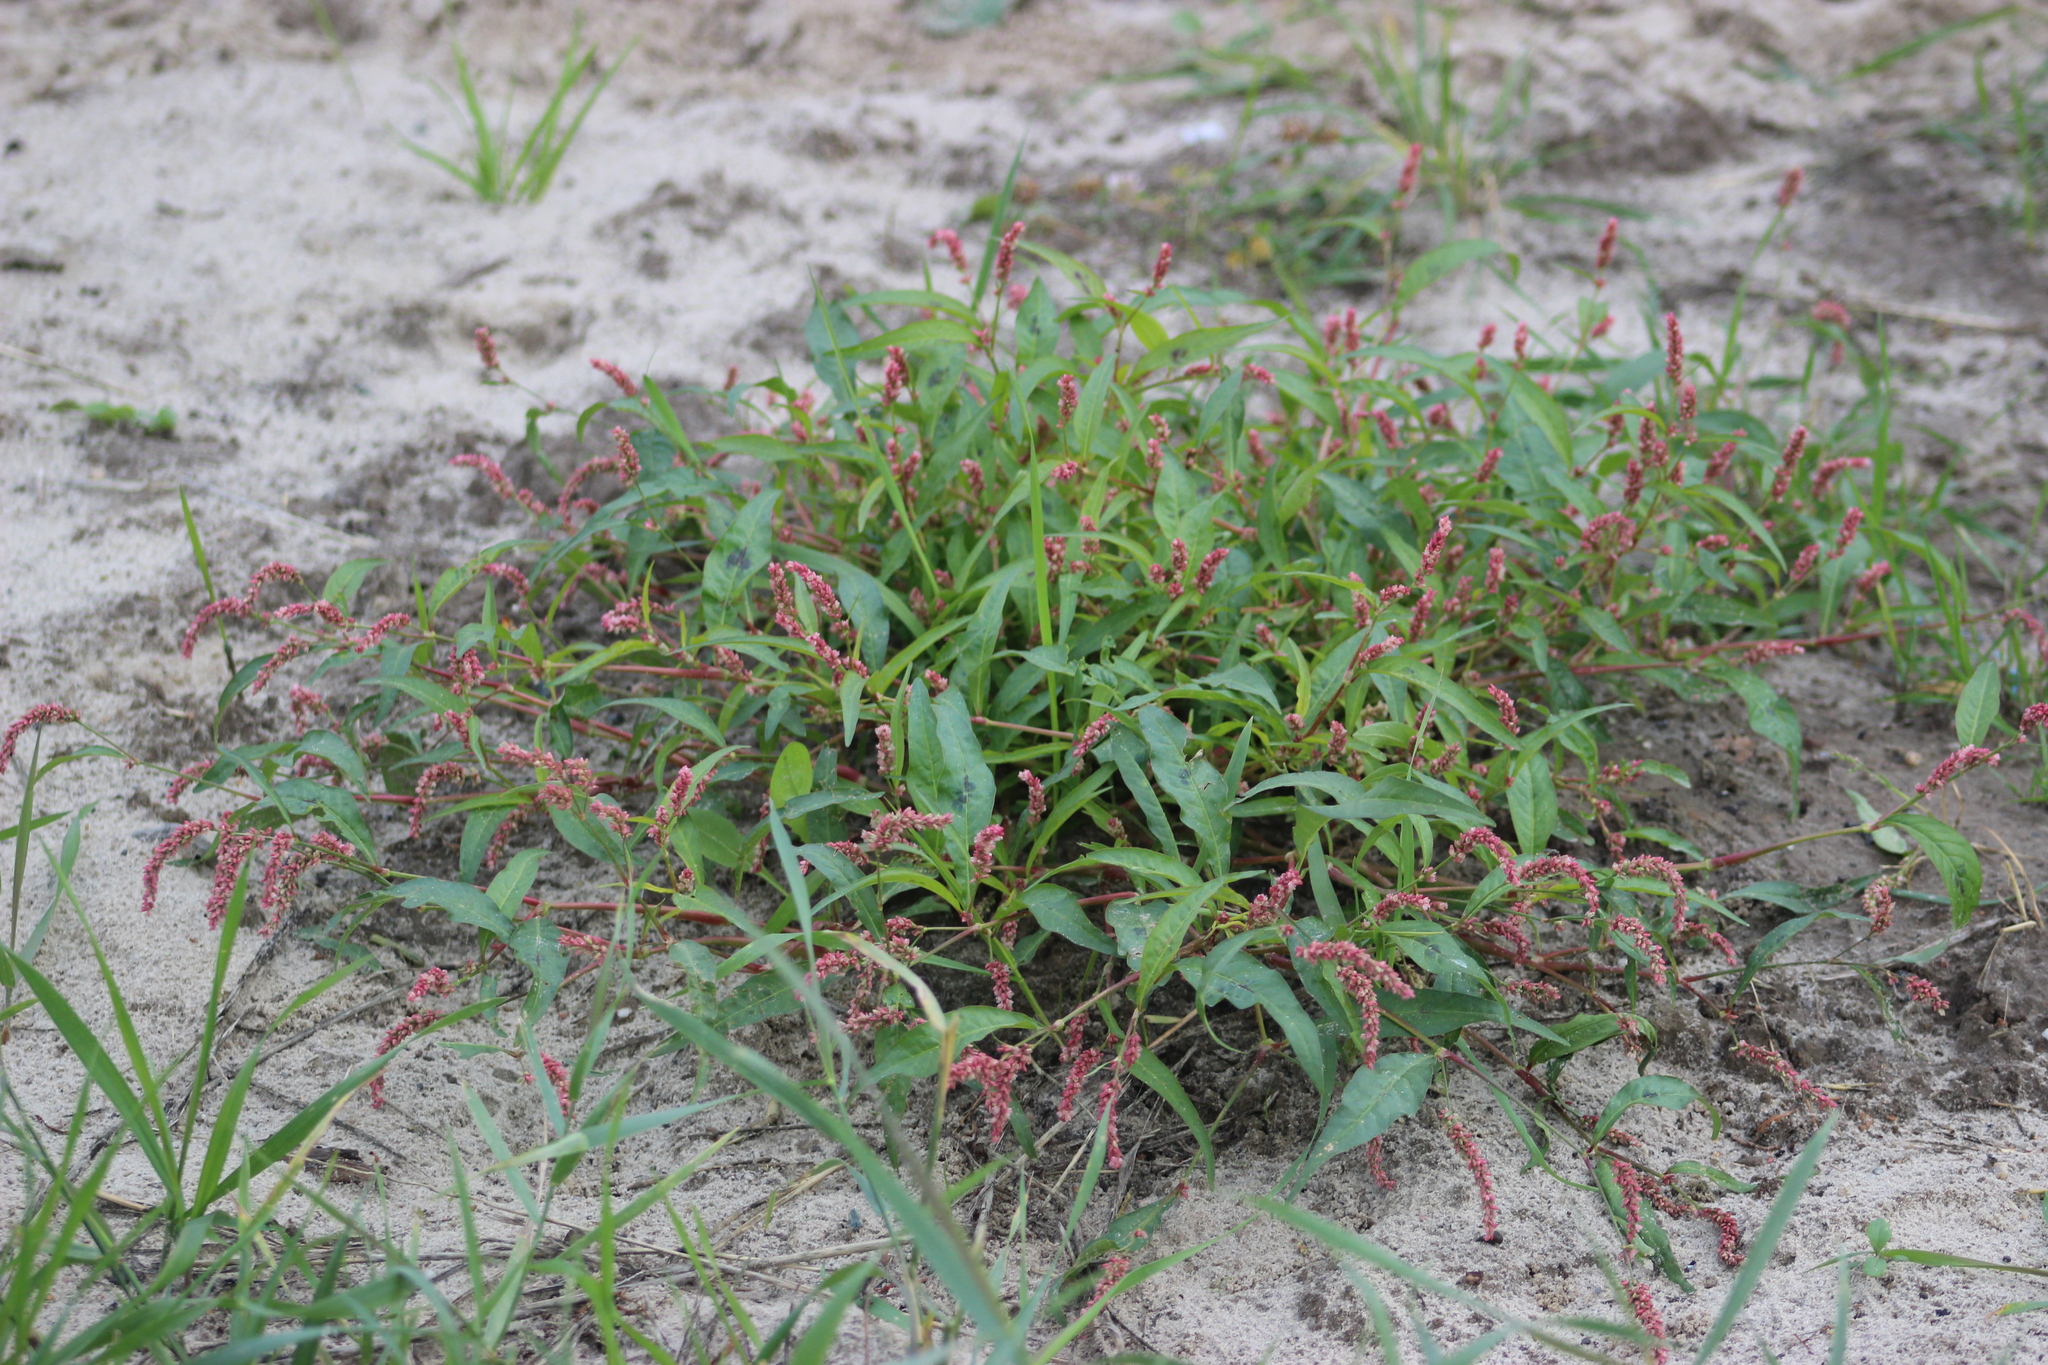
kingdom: Plantae
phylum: Tracheophyta
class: Magnoliopsida
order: Caryophyllales
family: Polygonaceae
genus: Persicaria
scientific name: Persicaria lapathifolia
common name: Curlytop knotweed
